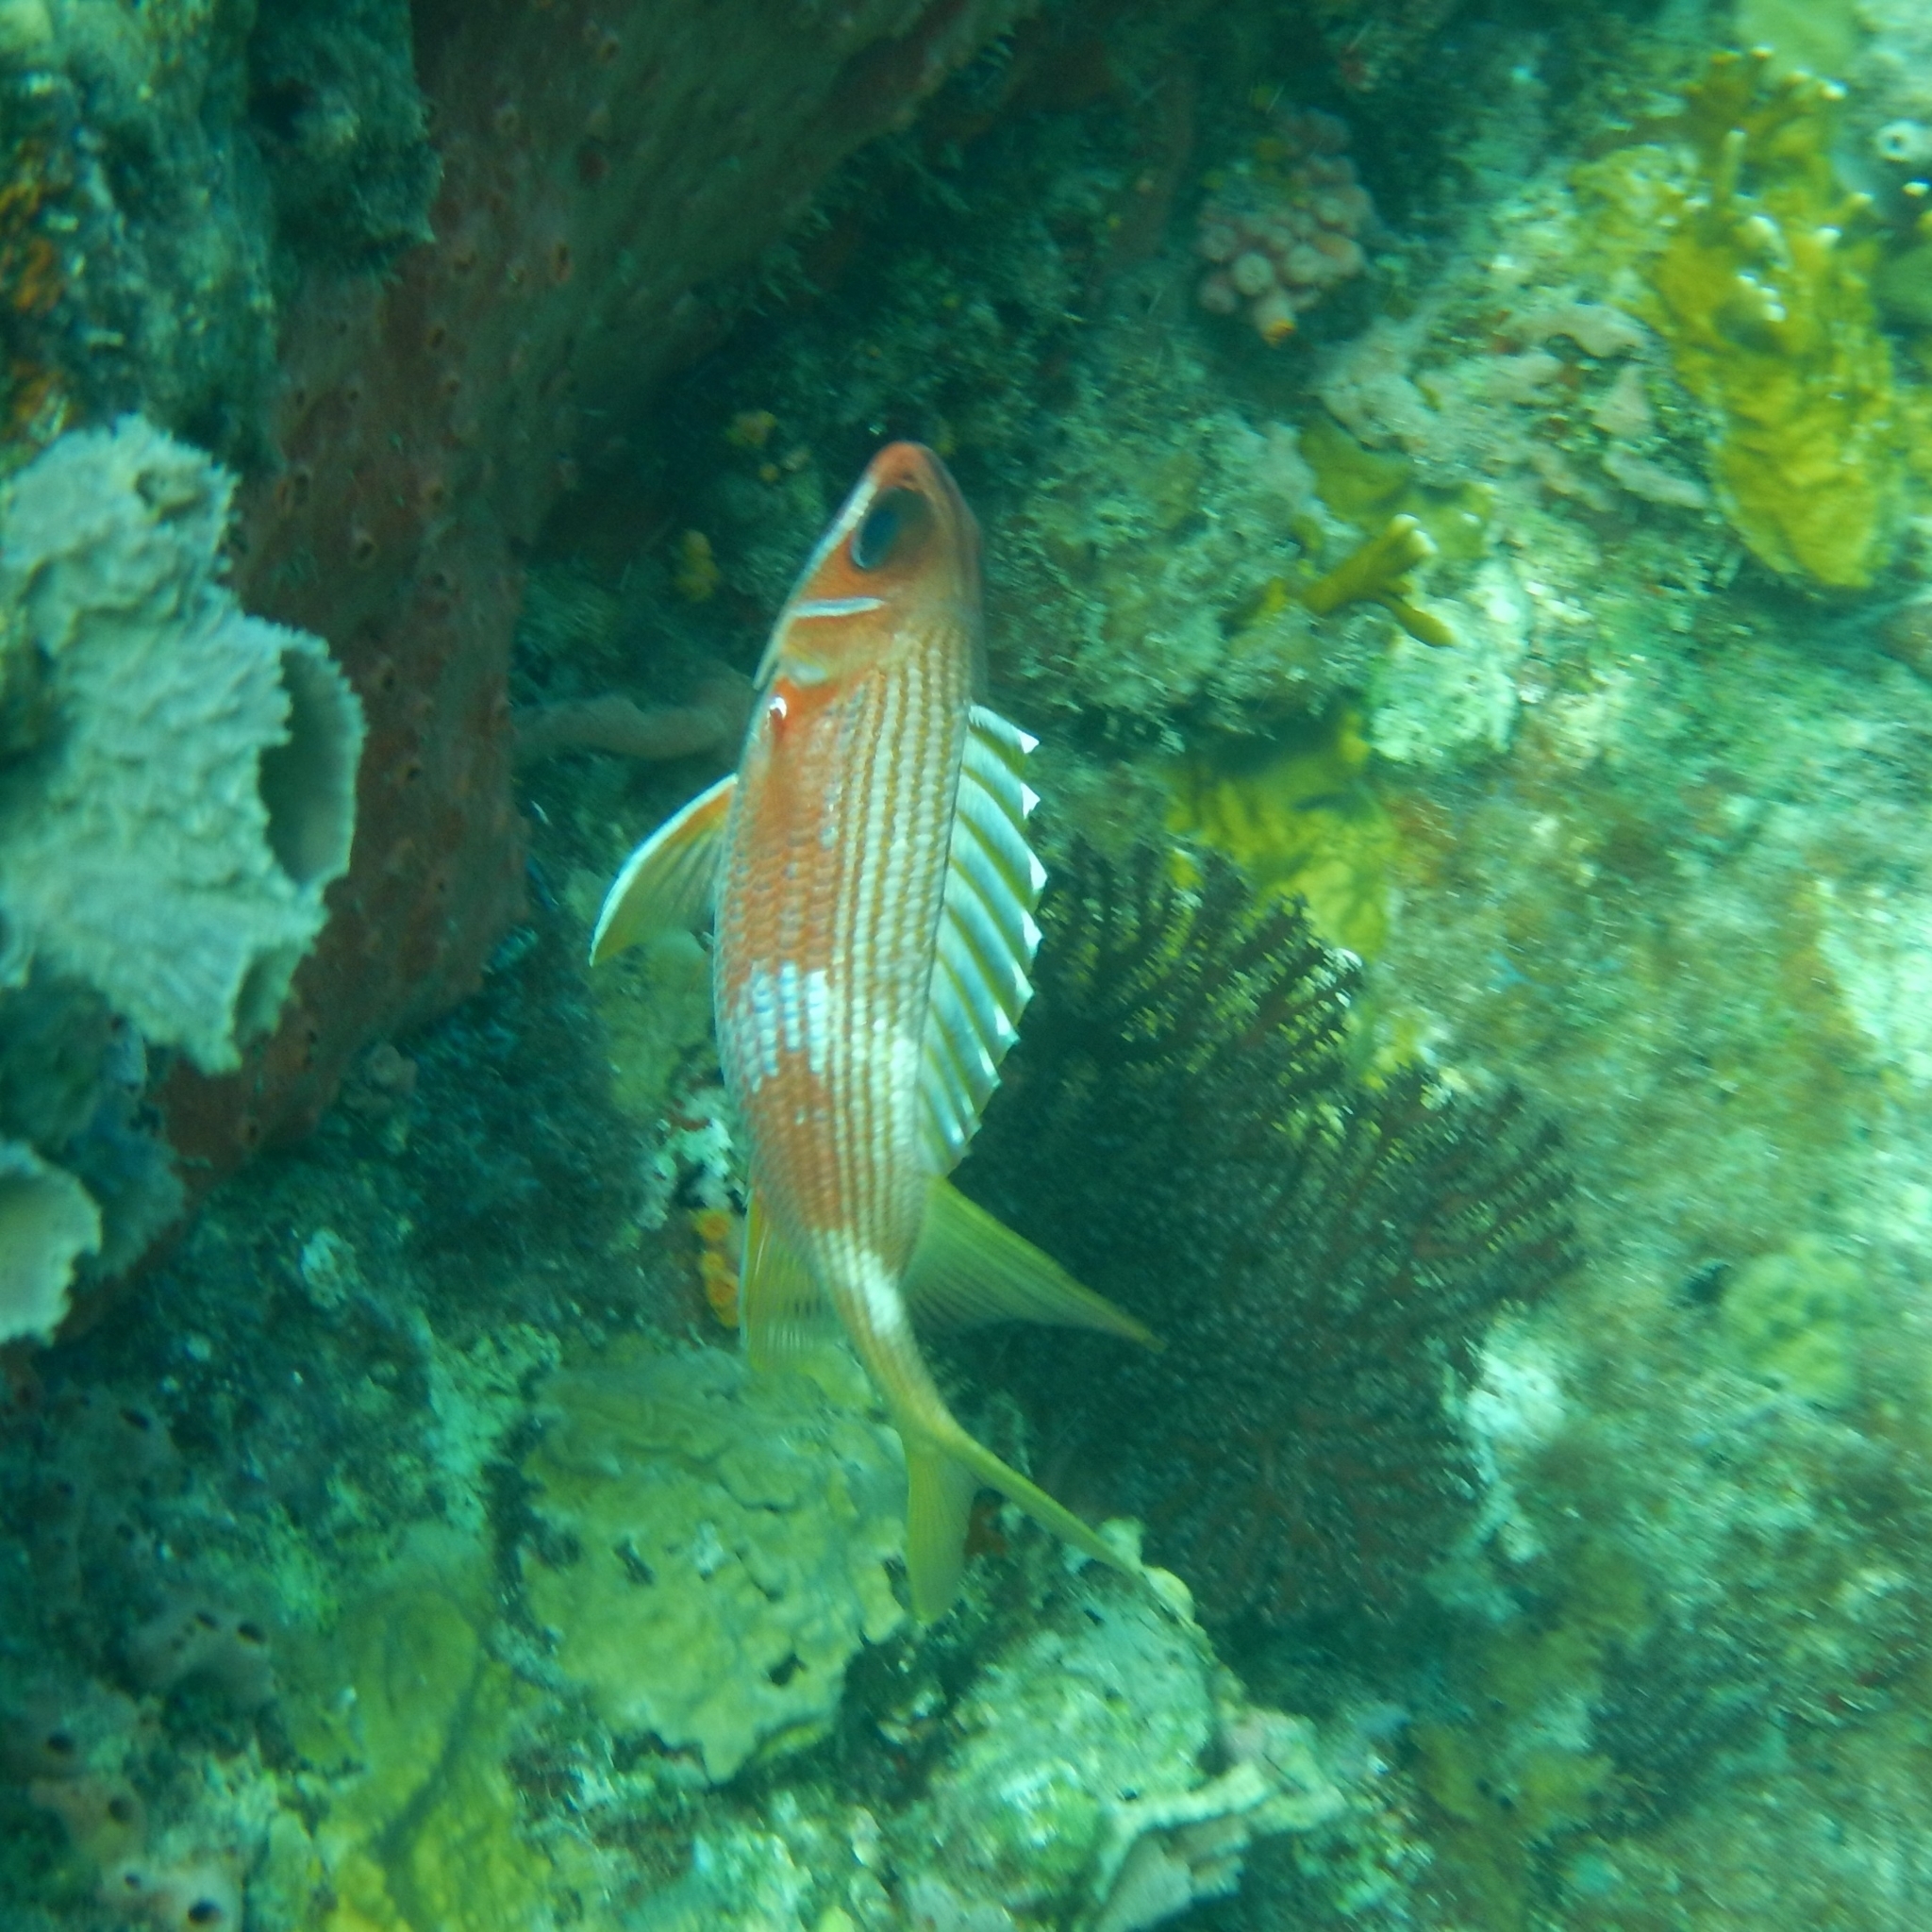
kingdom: Animalia
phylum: Chordata
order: Beryciformes
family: Holocentridae
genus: Holocentrus
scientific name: Holocentrus rufus
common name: Longspine squirrelfish
